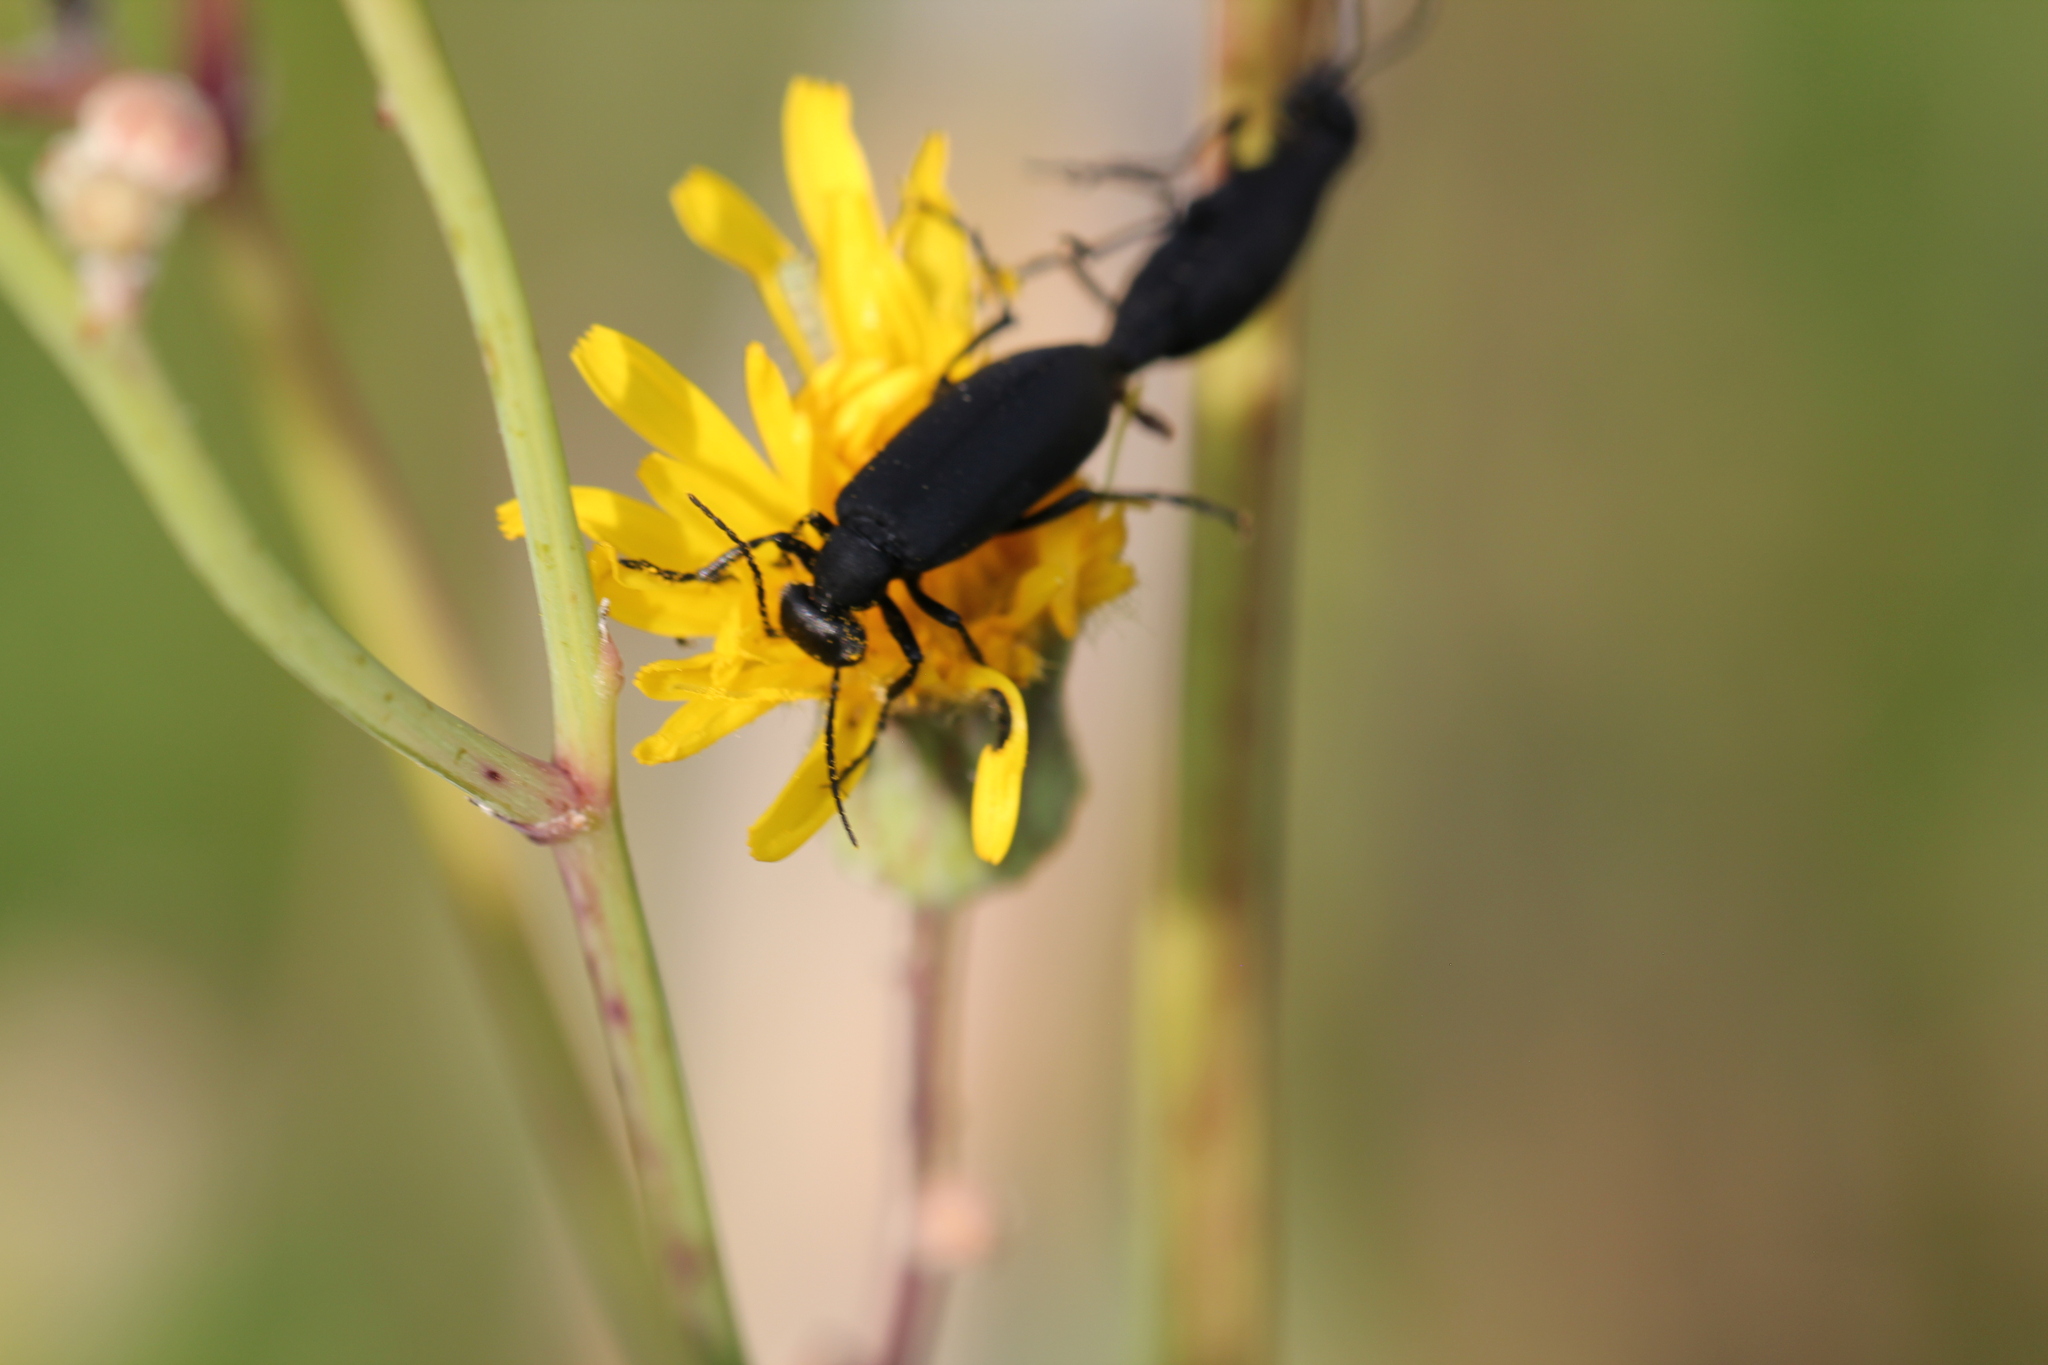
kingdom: Animalia
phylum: Arthropoda
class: Insecta
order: Coleoptera
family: Meloidae
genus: Epicauta
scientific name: Epicauta pensylvanica
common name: Black blister beetle
